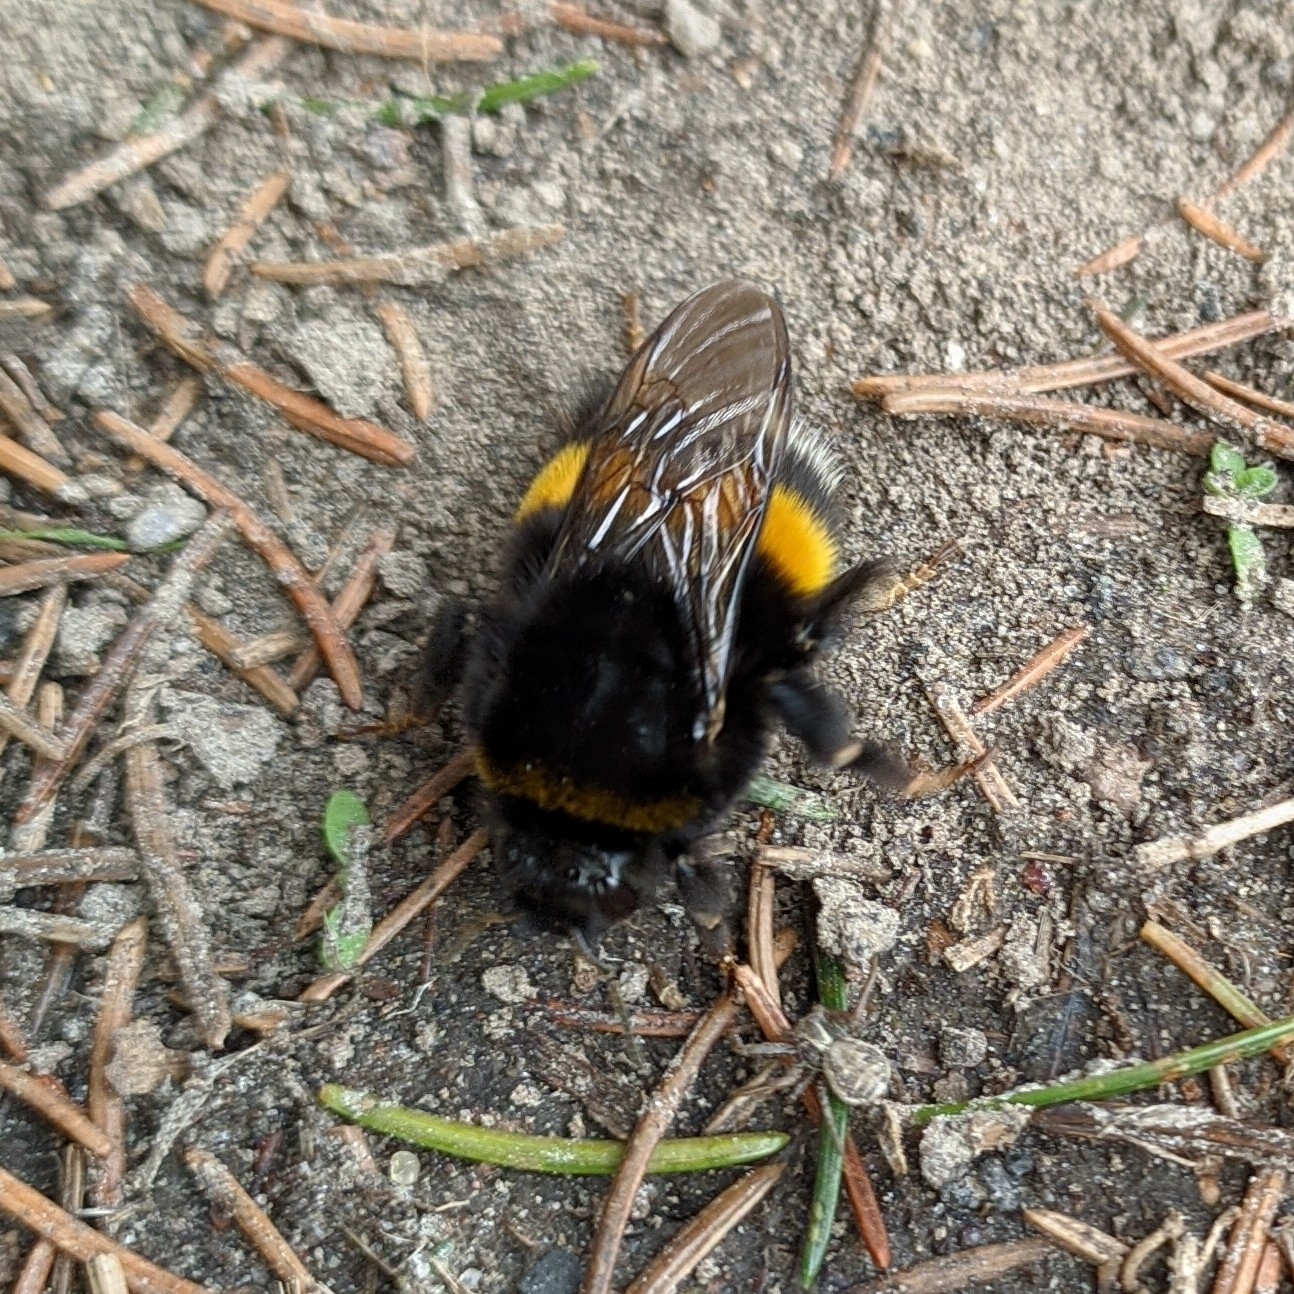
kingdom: Animalia
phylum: Arthropoda
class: Insecta
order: Hymenoptera
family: Apidae
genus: Bombus
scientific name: Bombus terrestris
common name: Buff-tailed bumblebee
